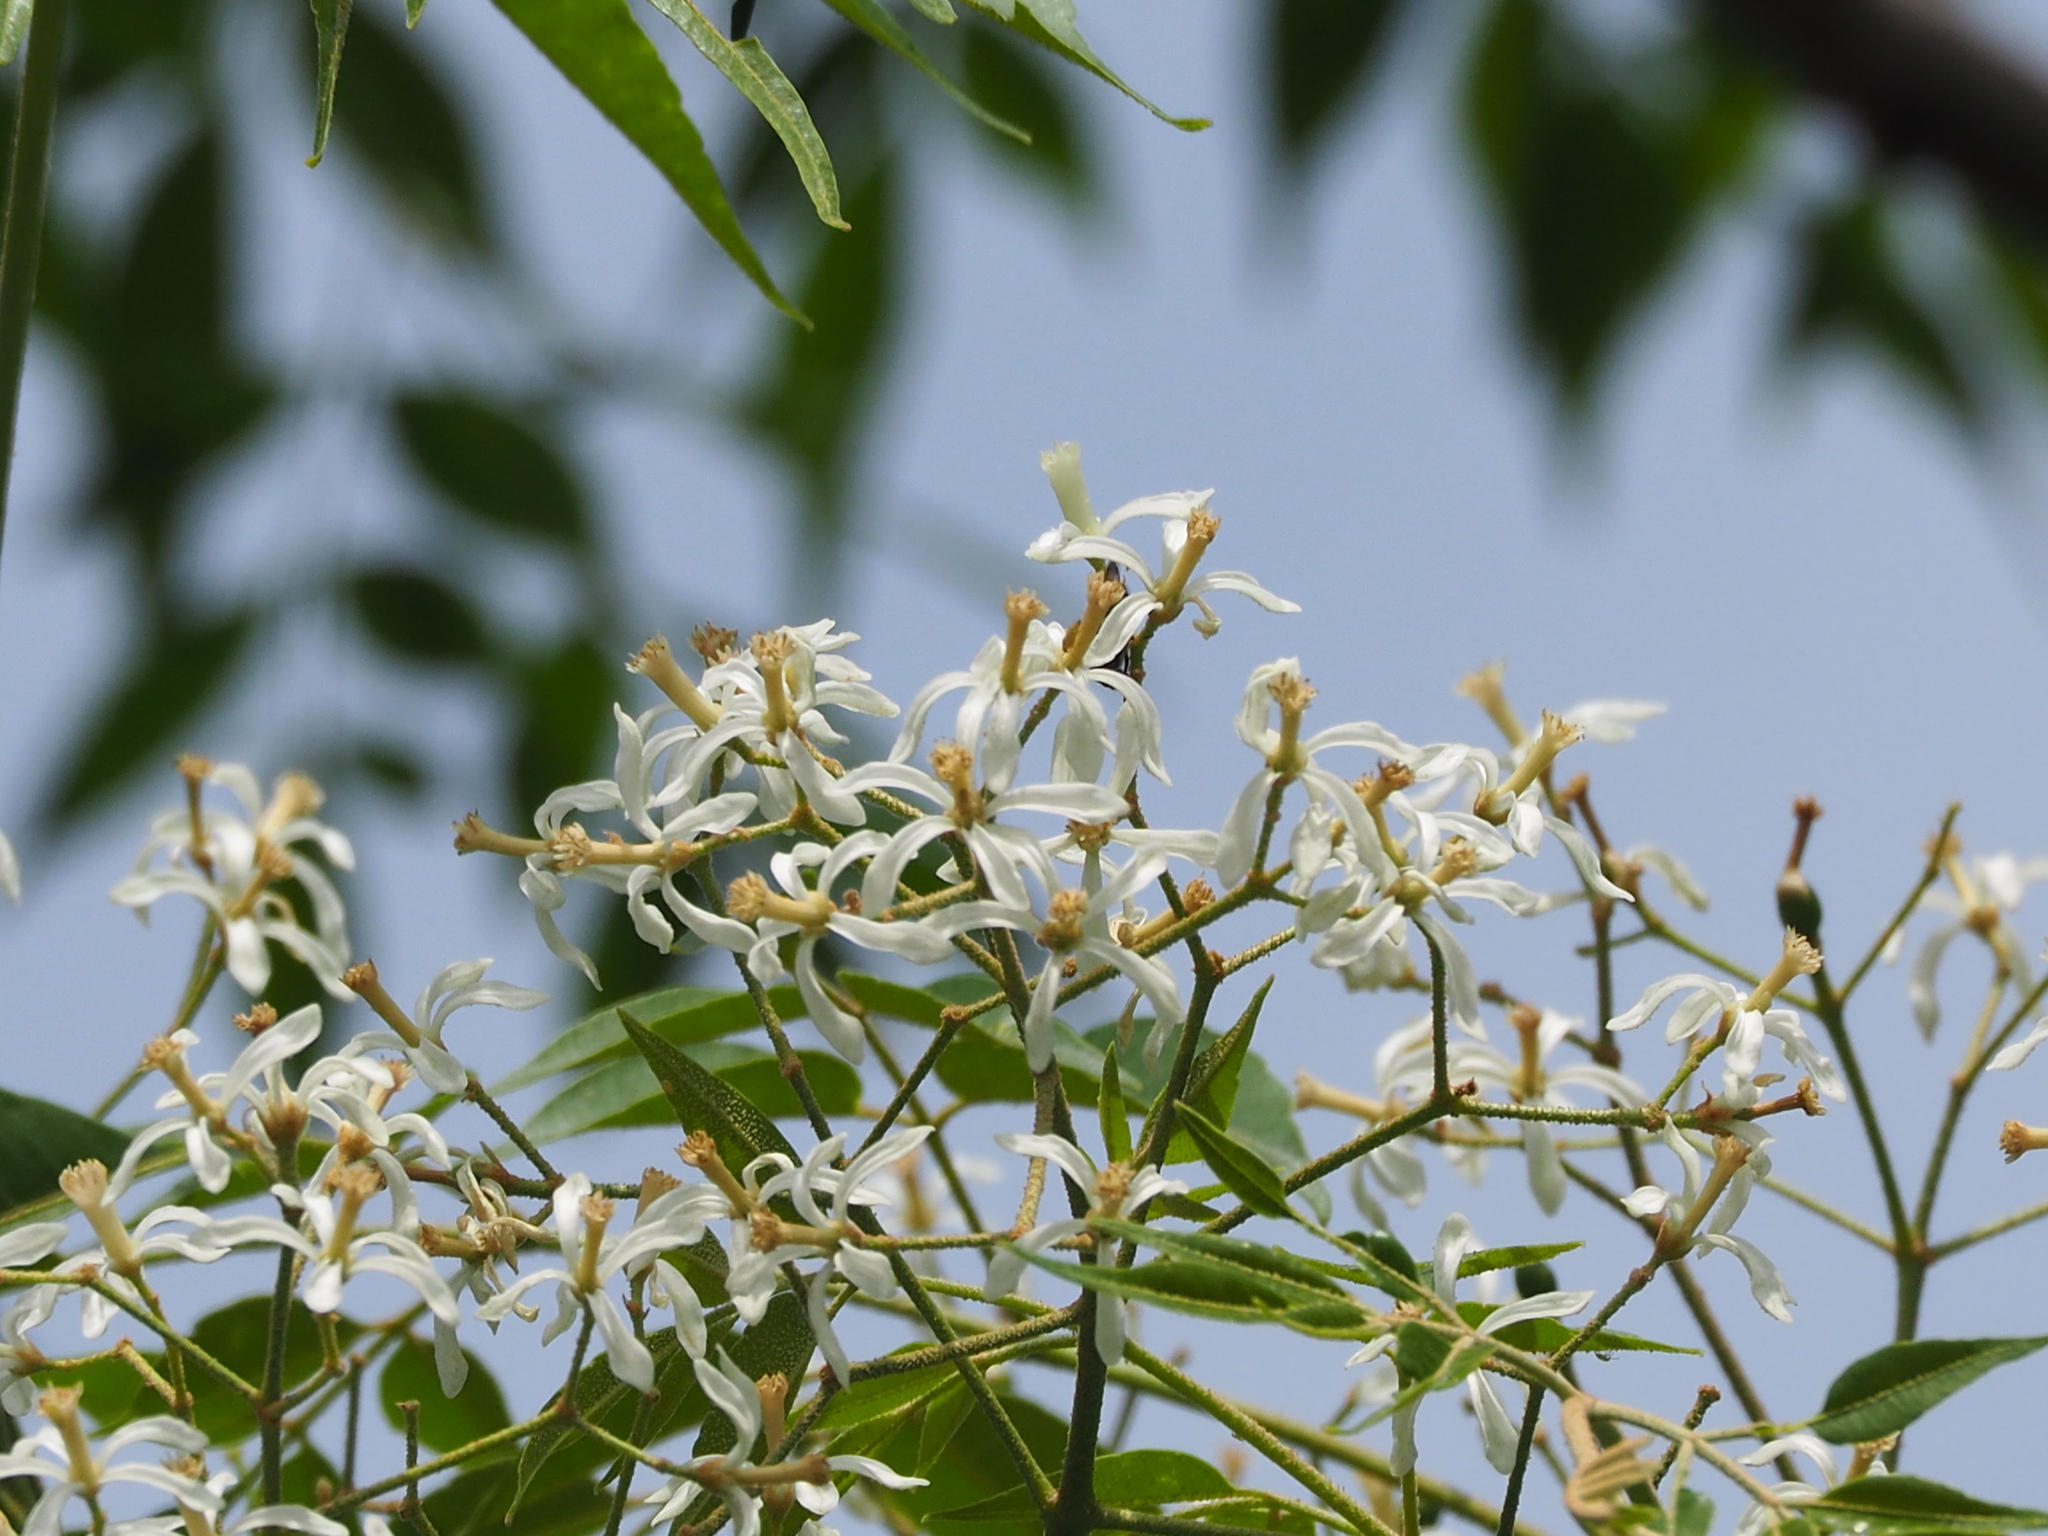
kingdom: Plantae
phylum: Tracheophyta
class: Magnoliopsida
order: Sapindales
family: Meliaceae
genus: Melia
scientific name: Melia azedarach
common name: Chinaberrytree
